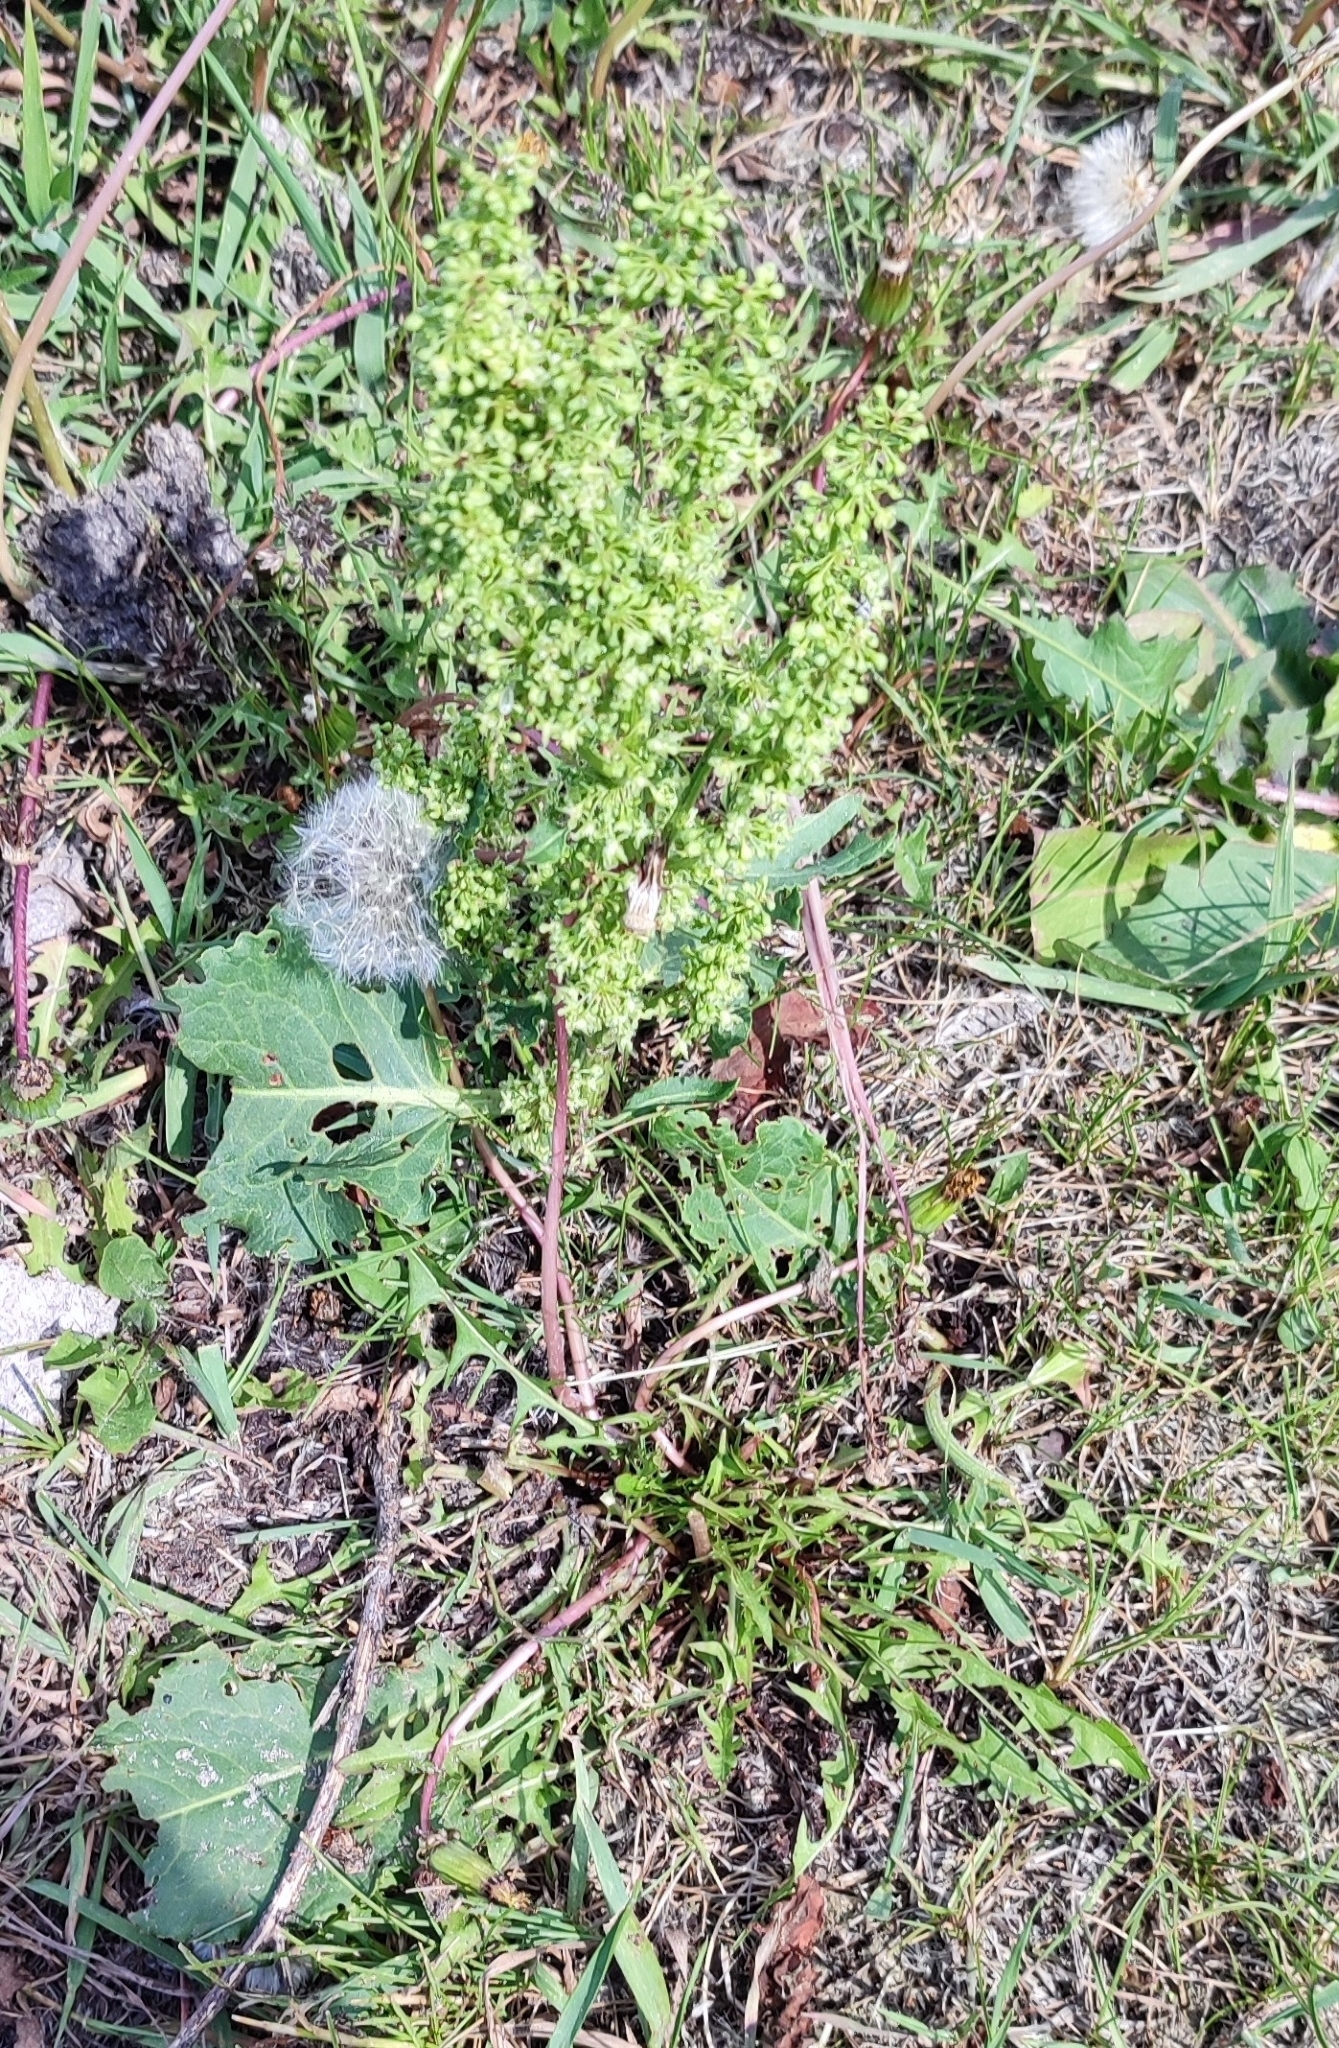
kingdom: Plantae
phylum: Tracheophyta
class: Magnoliopsida
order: Caryophyllales
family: Polygonaceae
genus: Rumex
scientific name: Rumex confertus
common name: Russian dock
